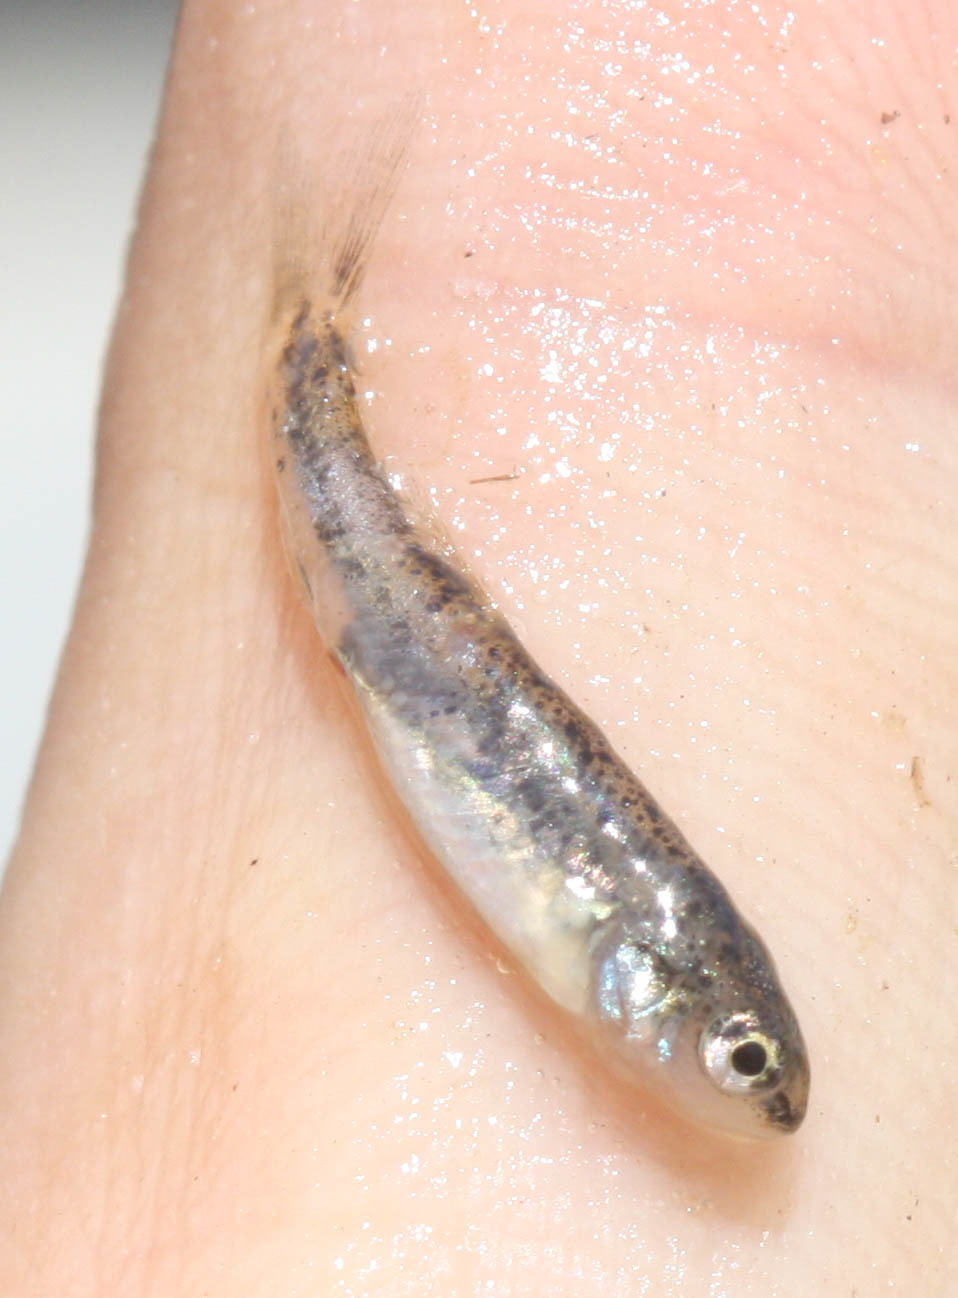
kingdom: Animalia
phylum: Chordata
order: Cypriniformes
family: Cyprinidae
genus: Rhinichthys
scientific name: Rhinichthys osculus
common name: Speckled dace
